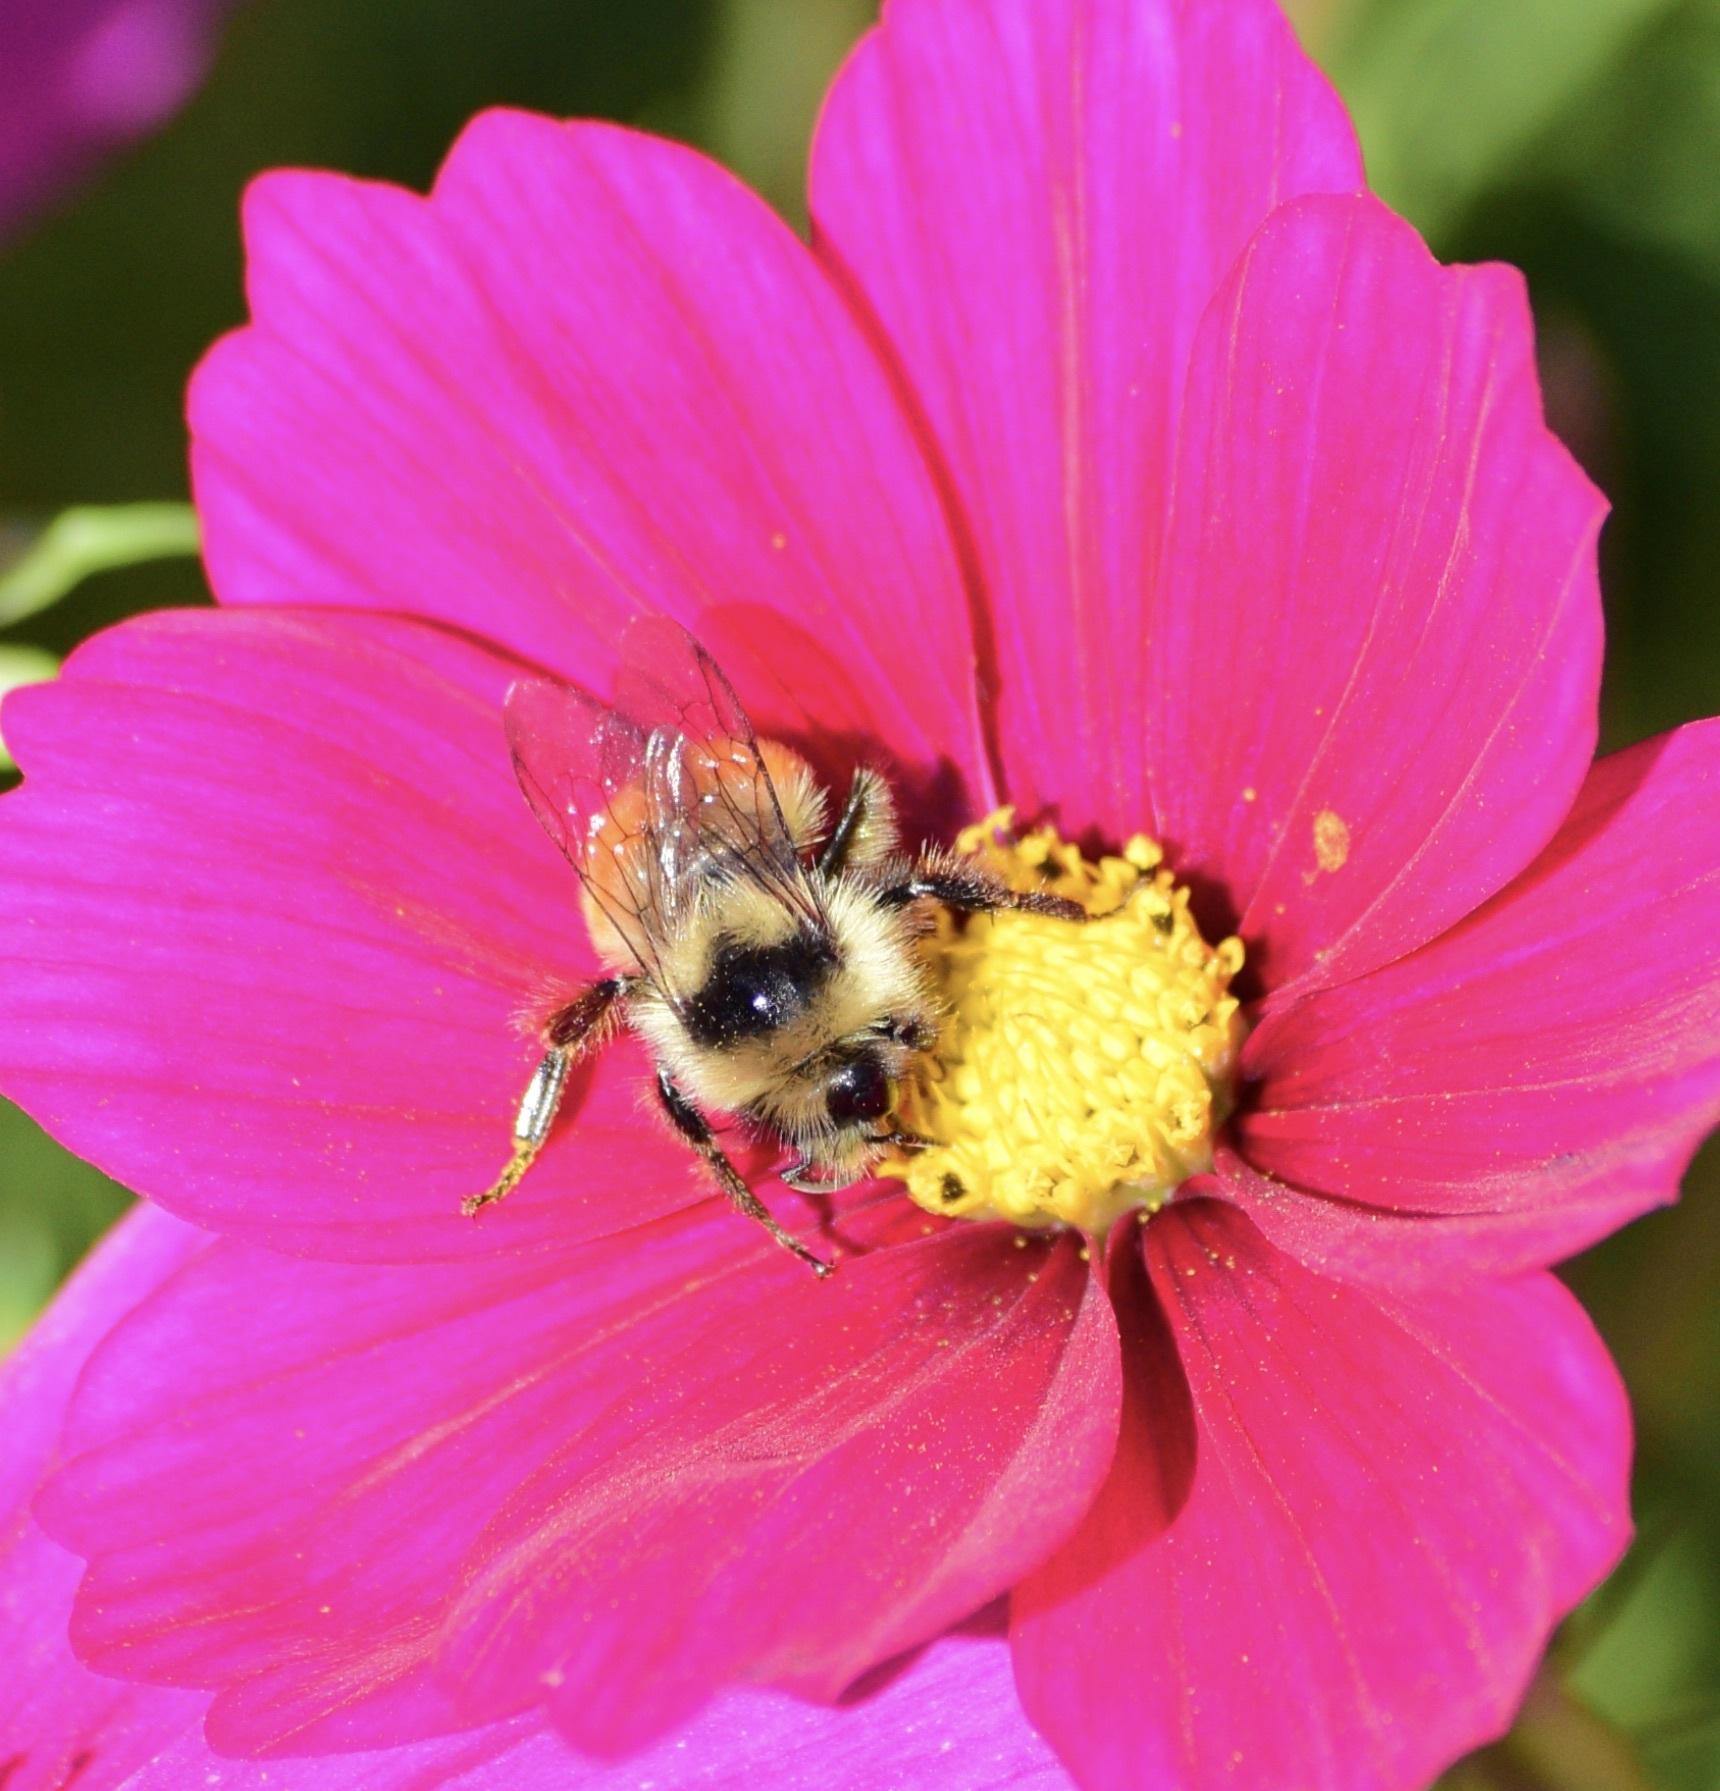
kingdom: Animalia
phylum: Arthropoda
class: Insecta
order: Hymenoptera
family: Apidae
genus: Bombus
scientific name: Bombus ternarius
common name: Tri-colored bumble bee
